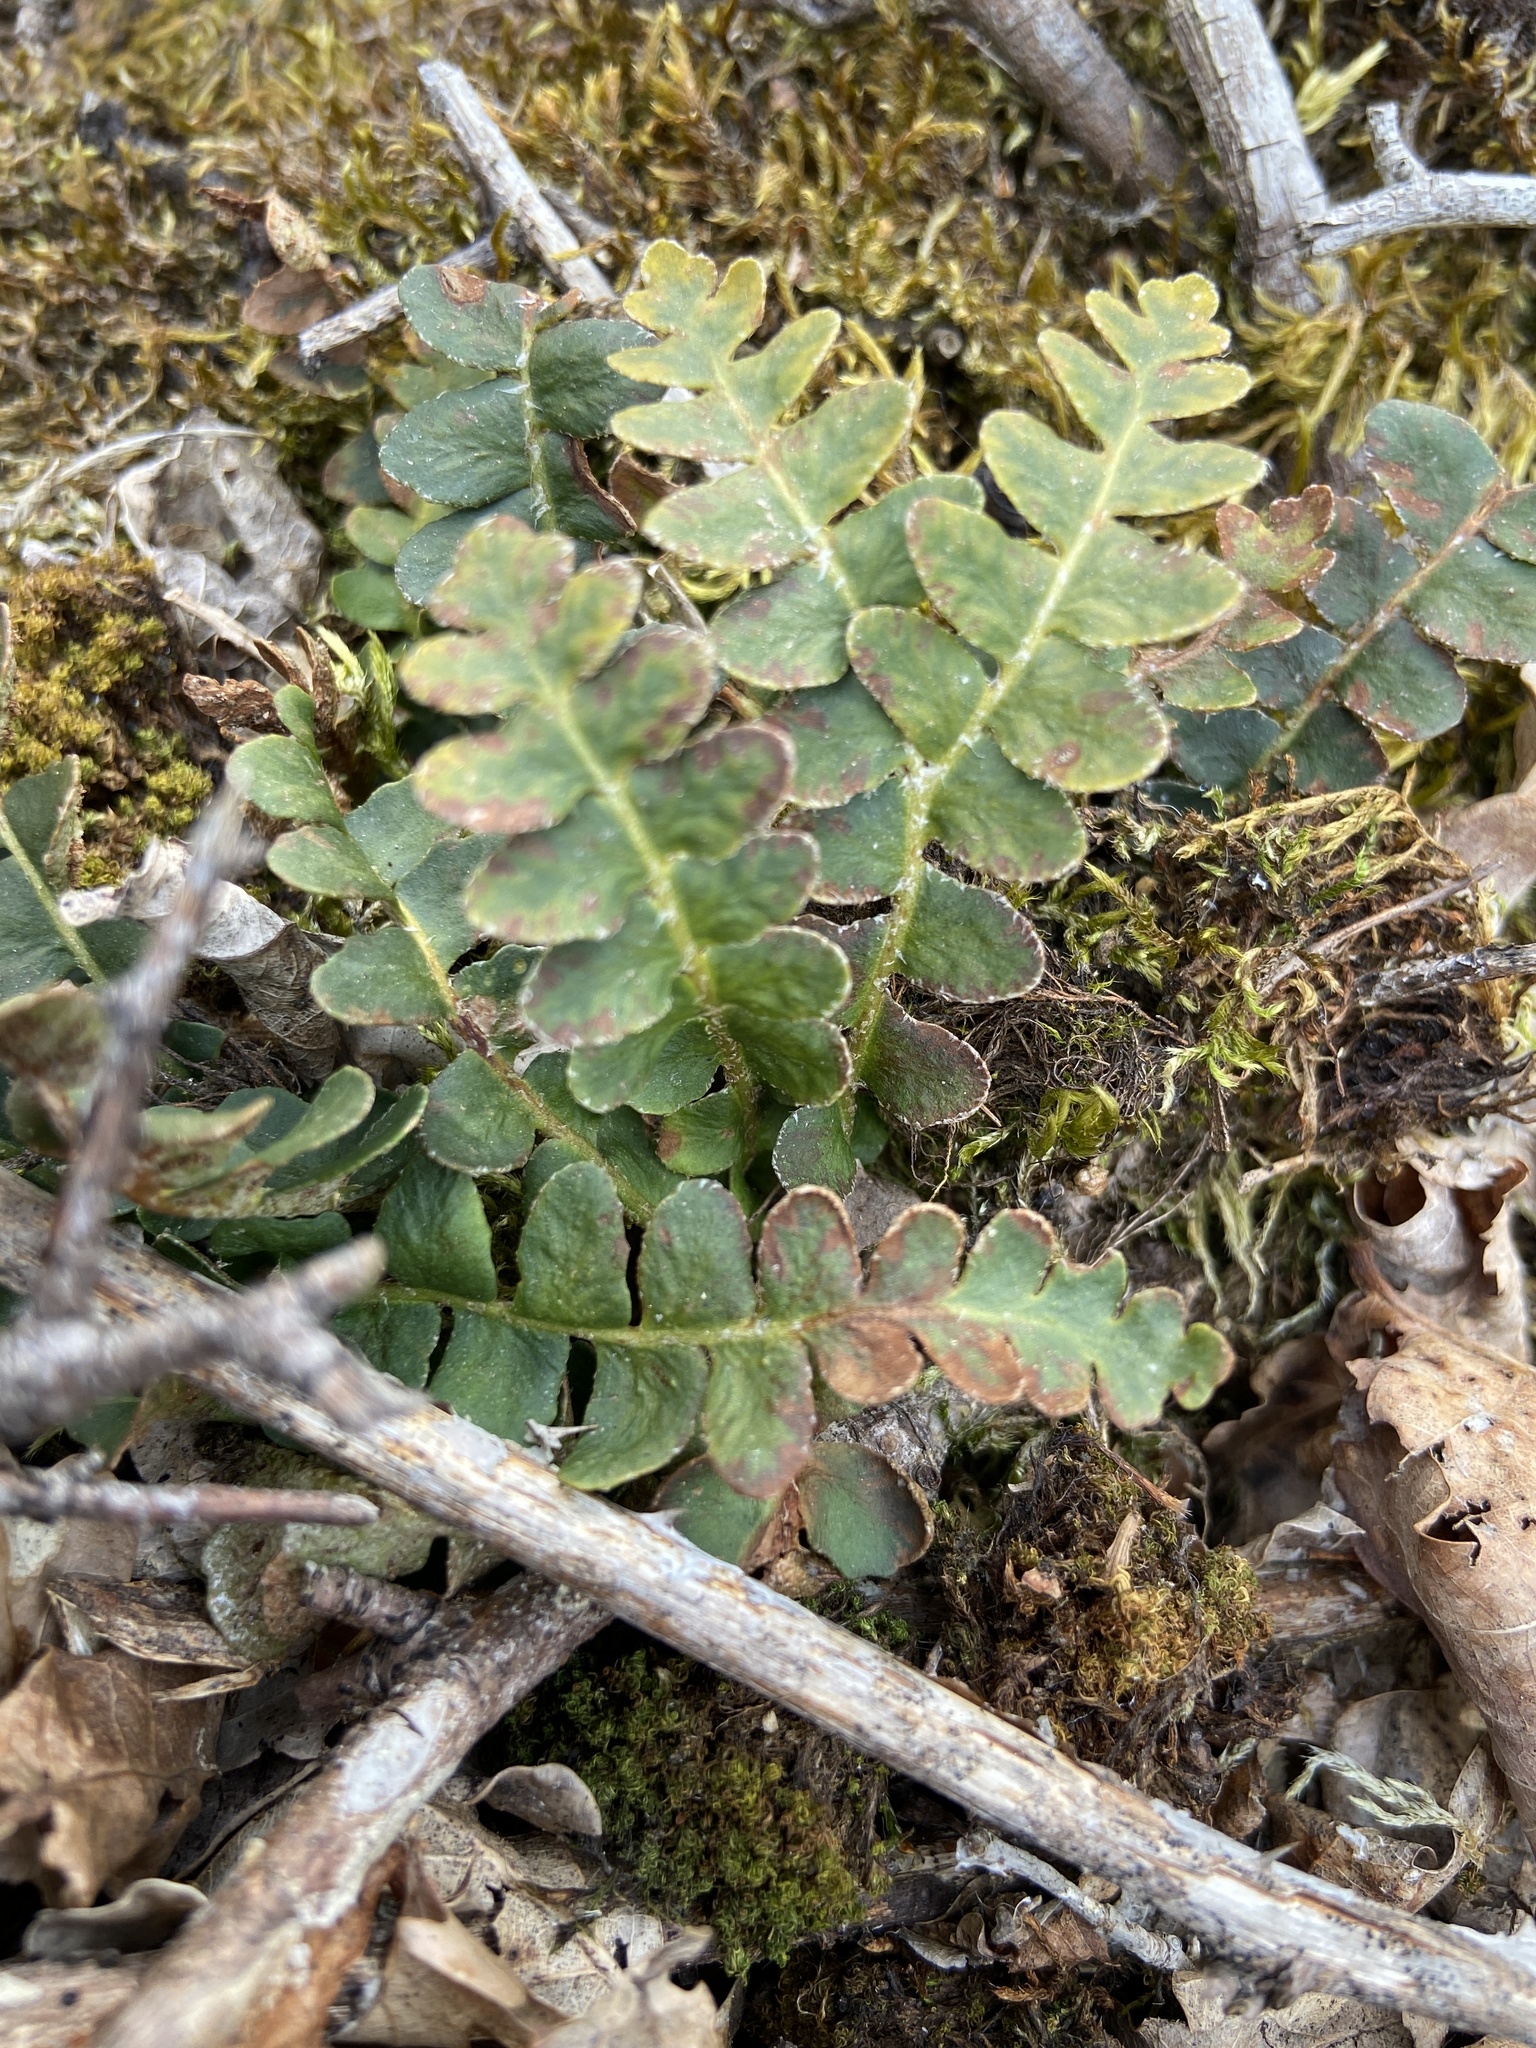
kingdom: Plantae
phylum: Tracheophyta
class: Polypodiopsida
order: Polypodiales
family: Aspleniaceae
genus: Asplenium
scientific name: Asplenium ceterach
